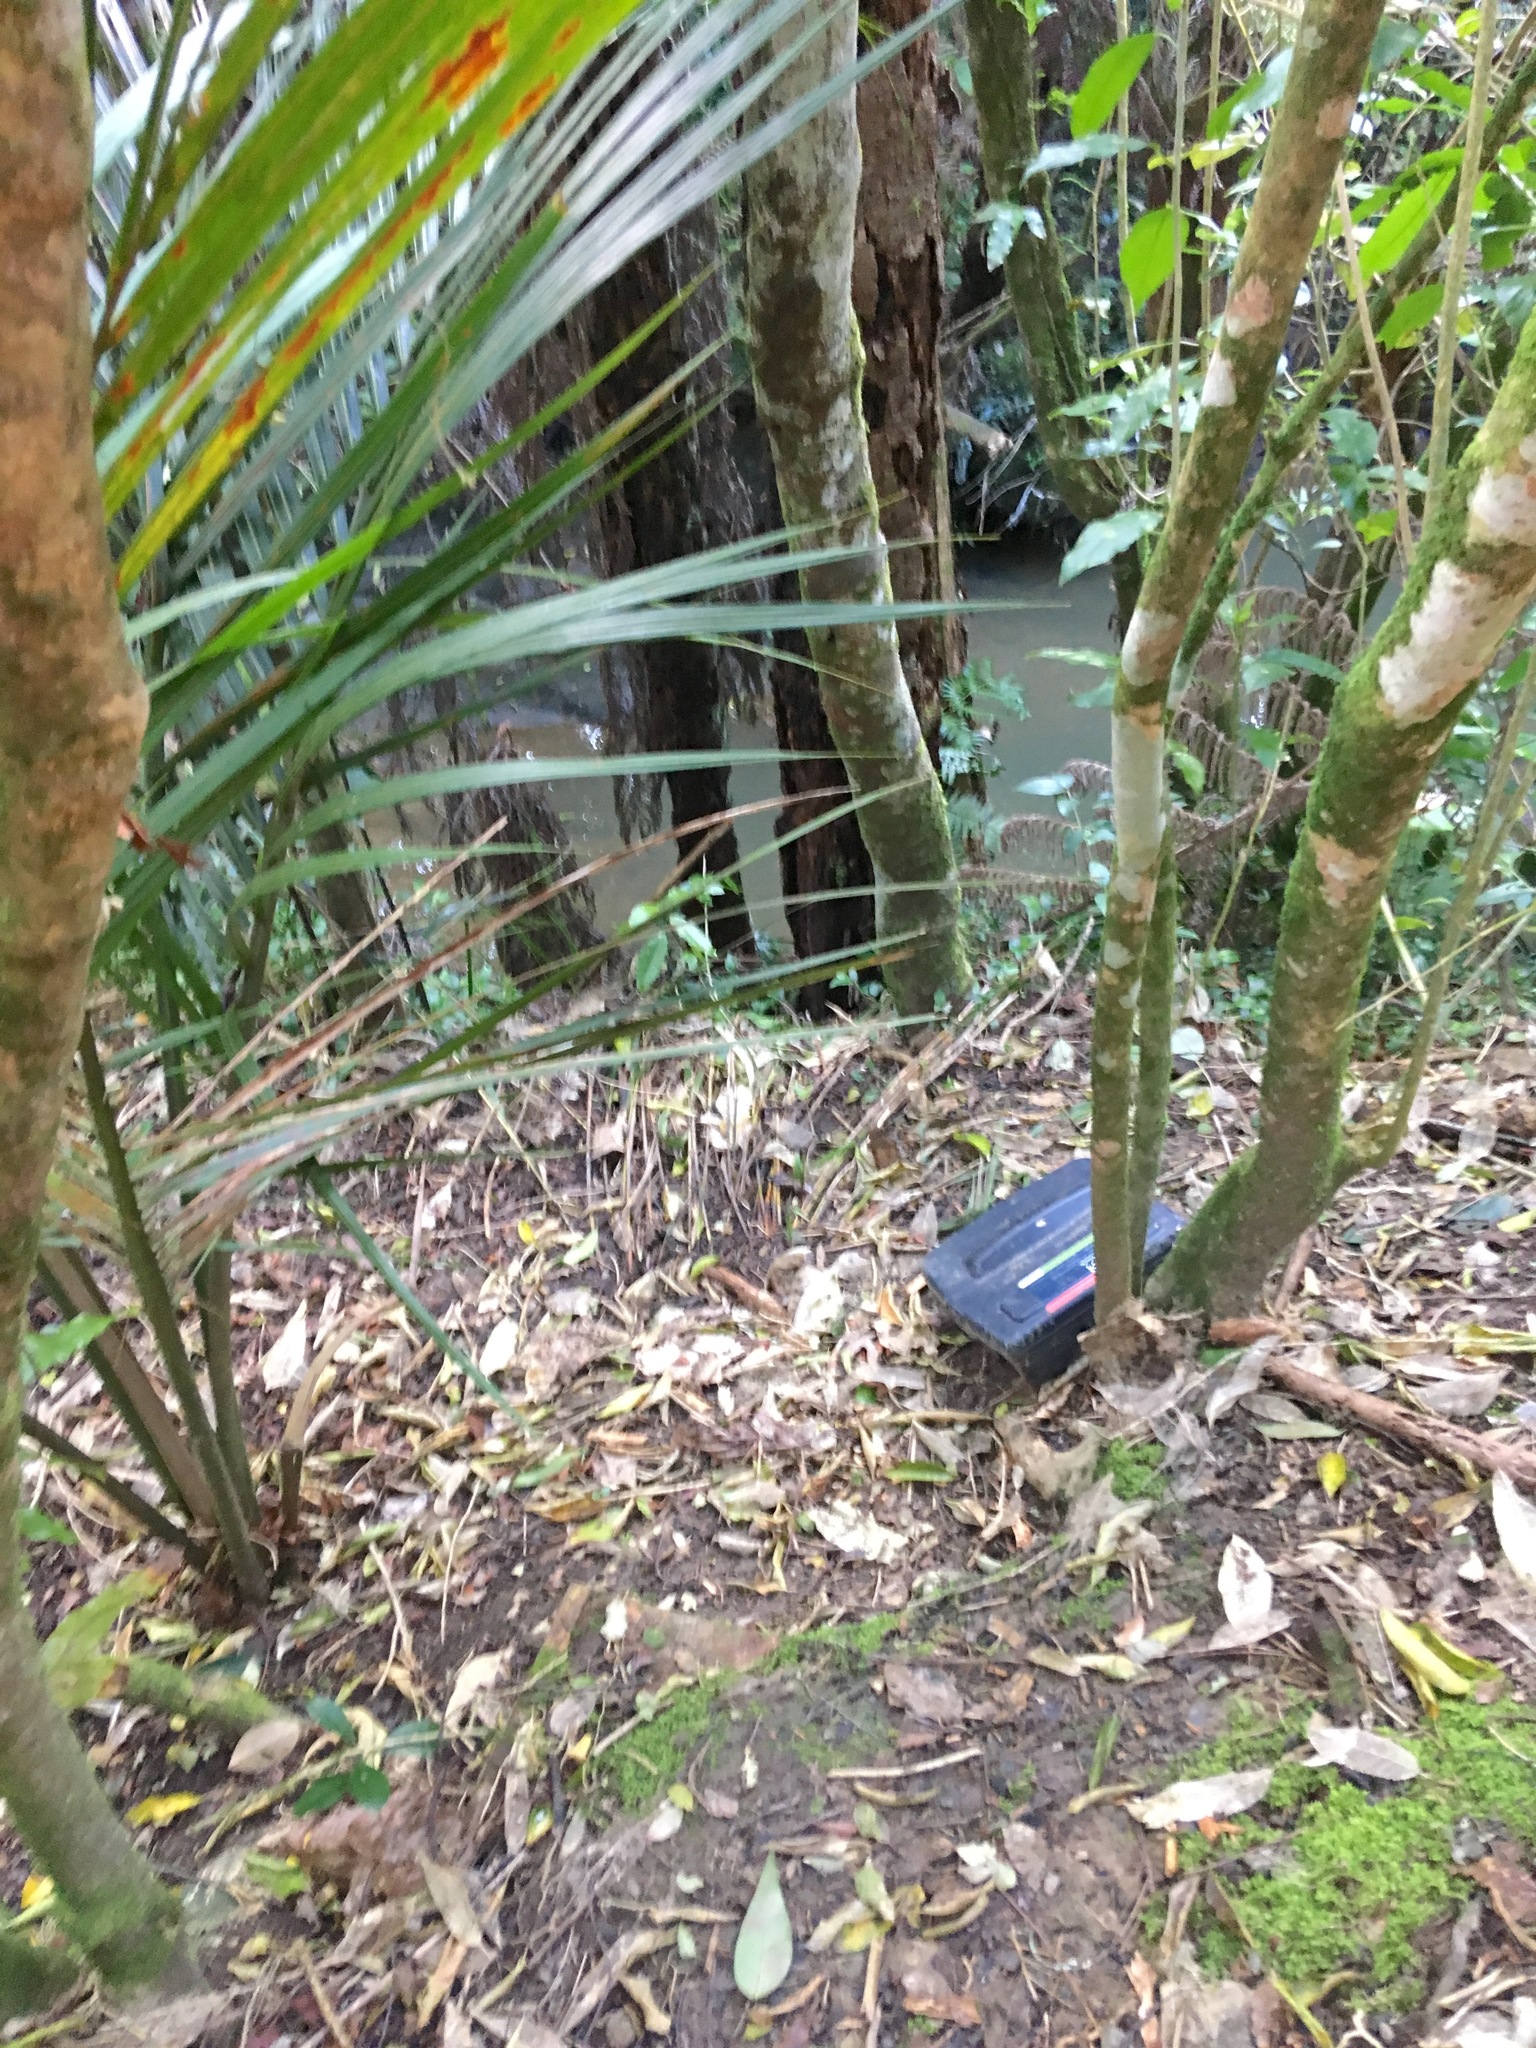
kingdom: Plantae
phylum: Tracheophyta
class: Liliopsida
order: Arecales
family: Arecaceae
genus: Rhopalostylis
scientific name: Rhopalostylis sapida
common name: Feather-duster palm
